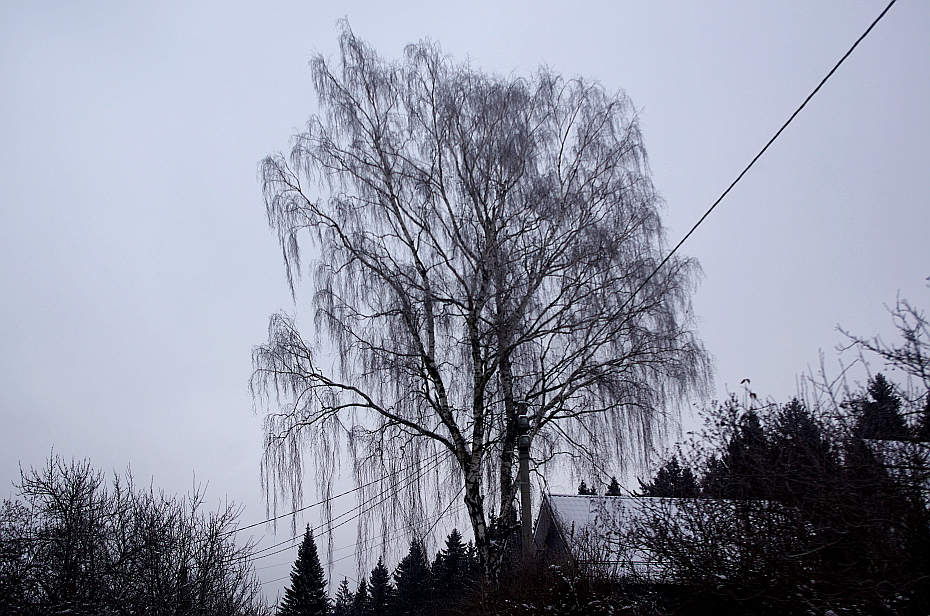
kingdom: Plantae
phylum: Tracheophyta
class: Magnoliopsida
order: Fagales
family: Betulaceae
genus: Betula
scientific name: Betula pendula
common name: Silver birch
